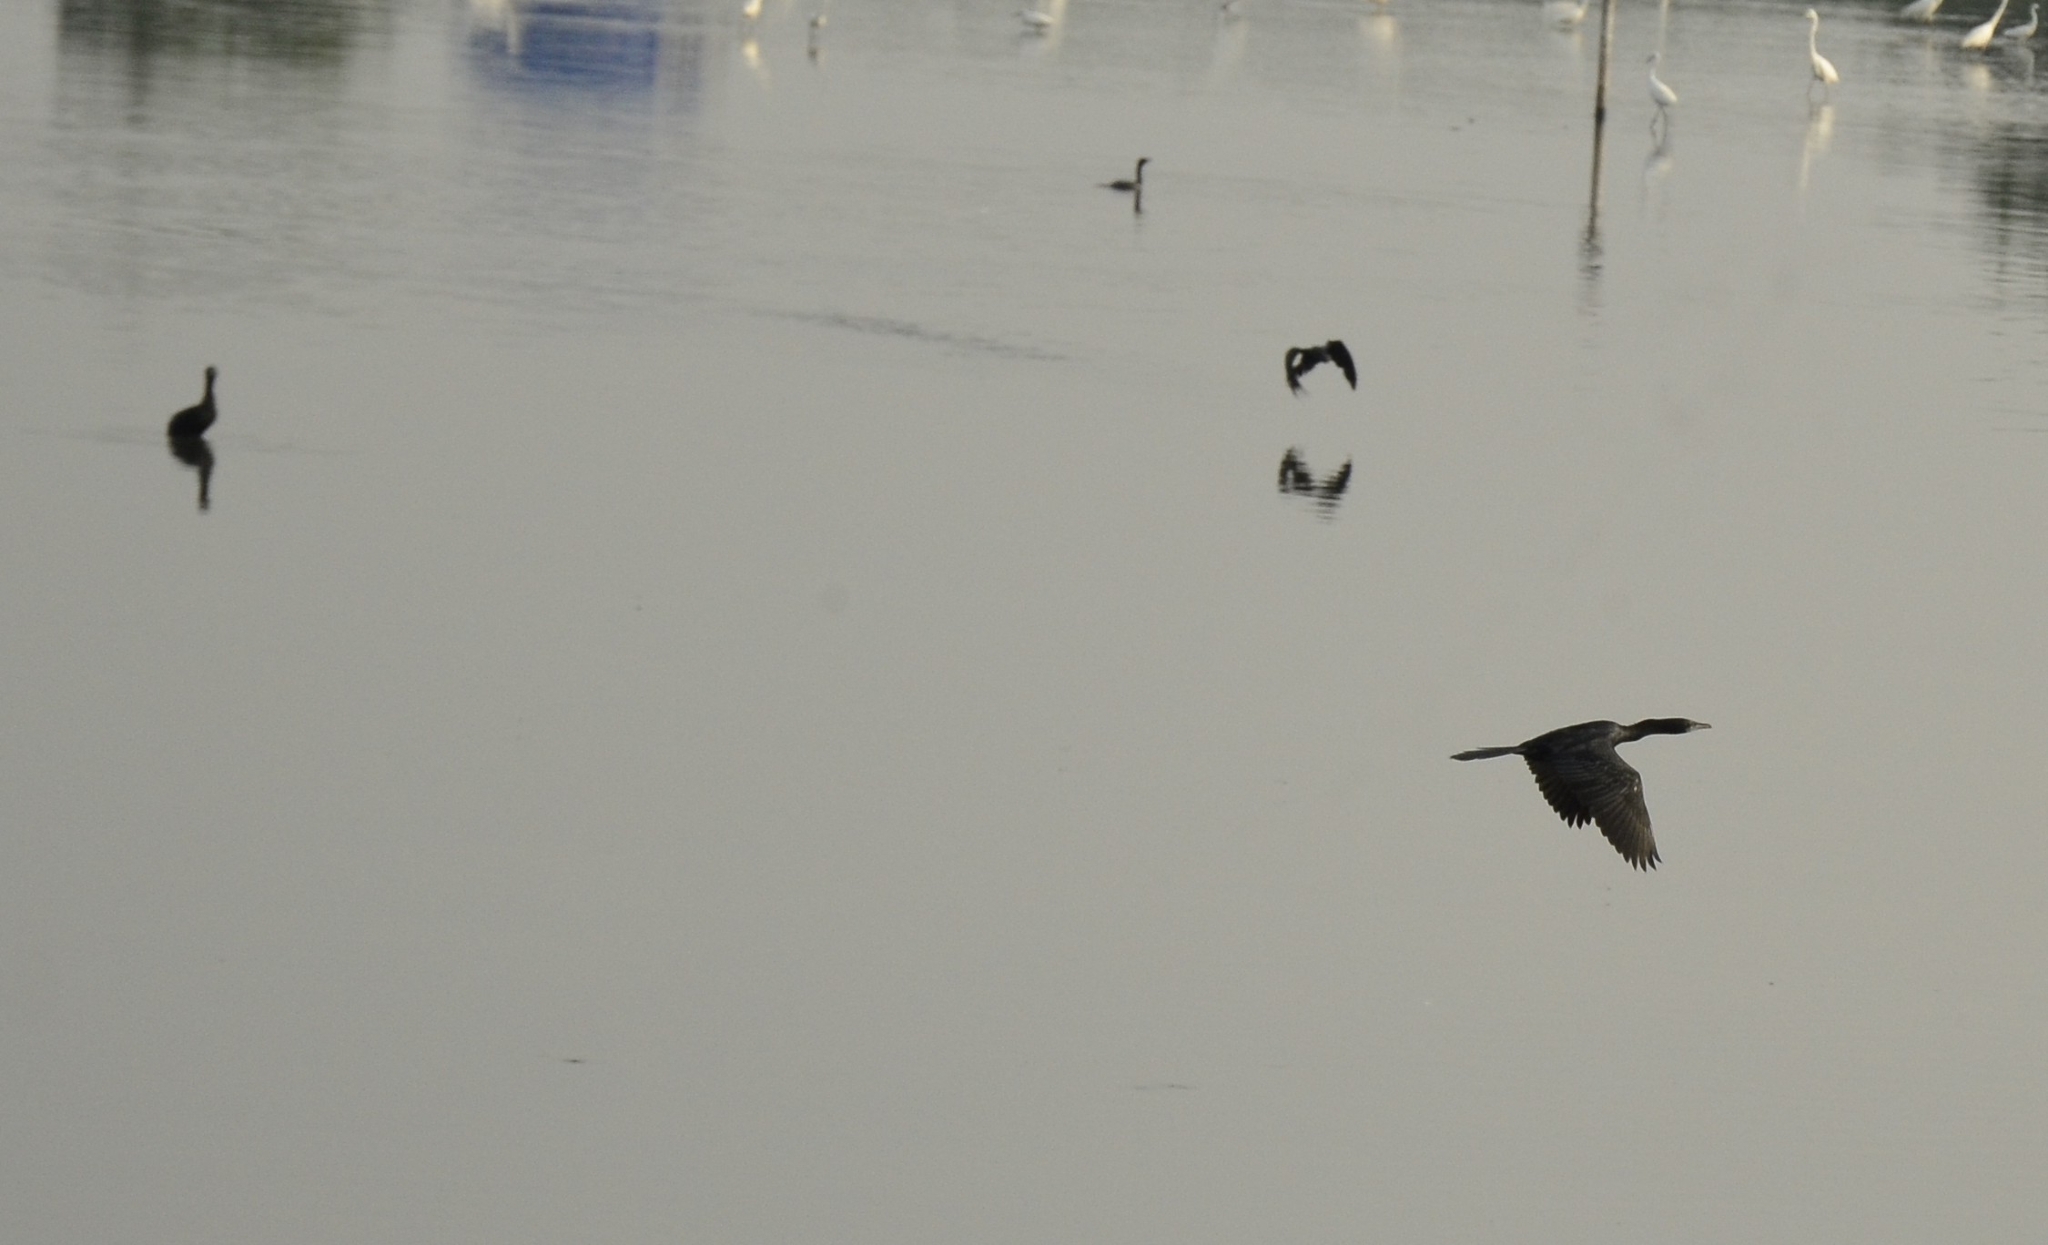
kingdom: Animalia
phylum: Chordata
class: Aves
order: Suliformes
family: Phalacrocoracidae
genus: Microcarbo
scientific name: Microcarbo niger
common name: Little cormorant
